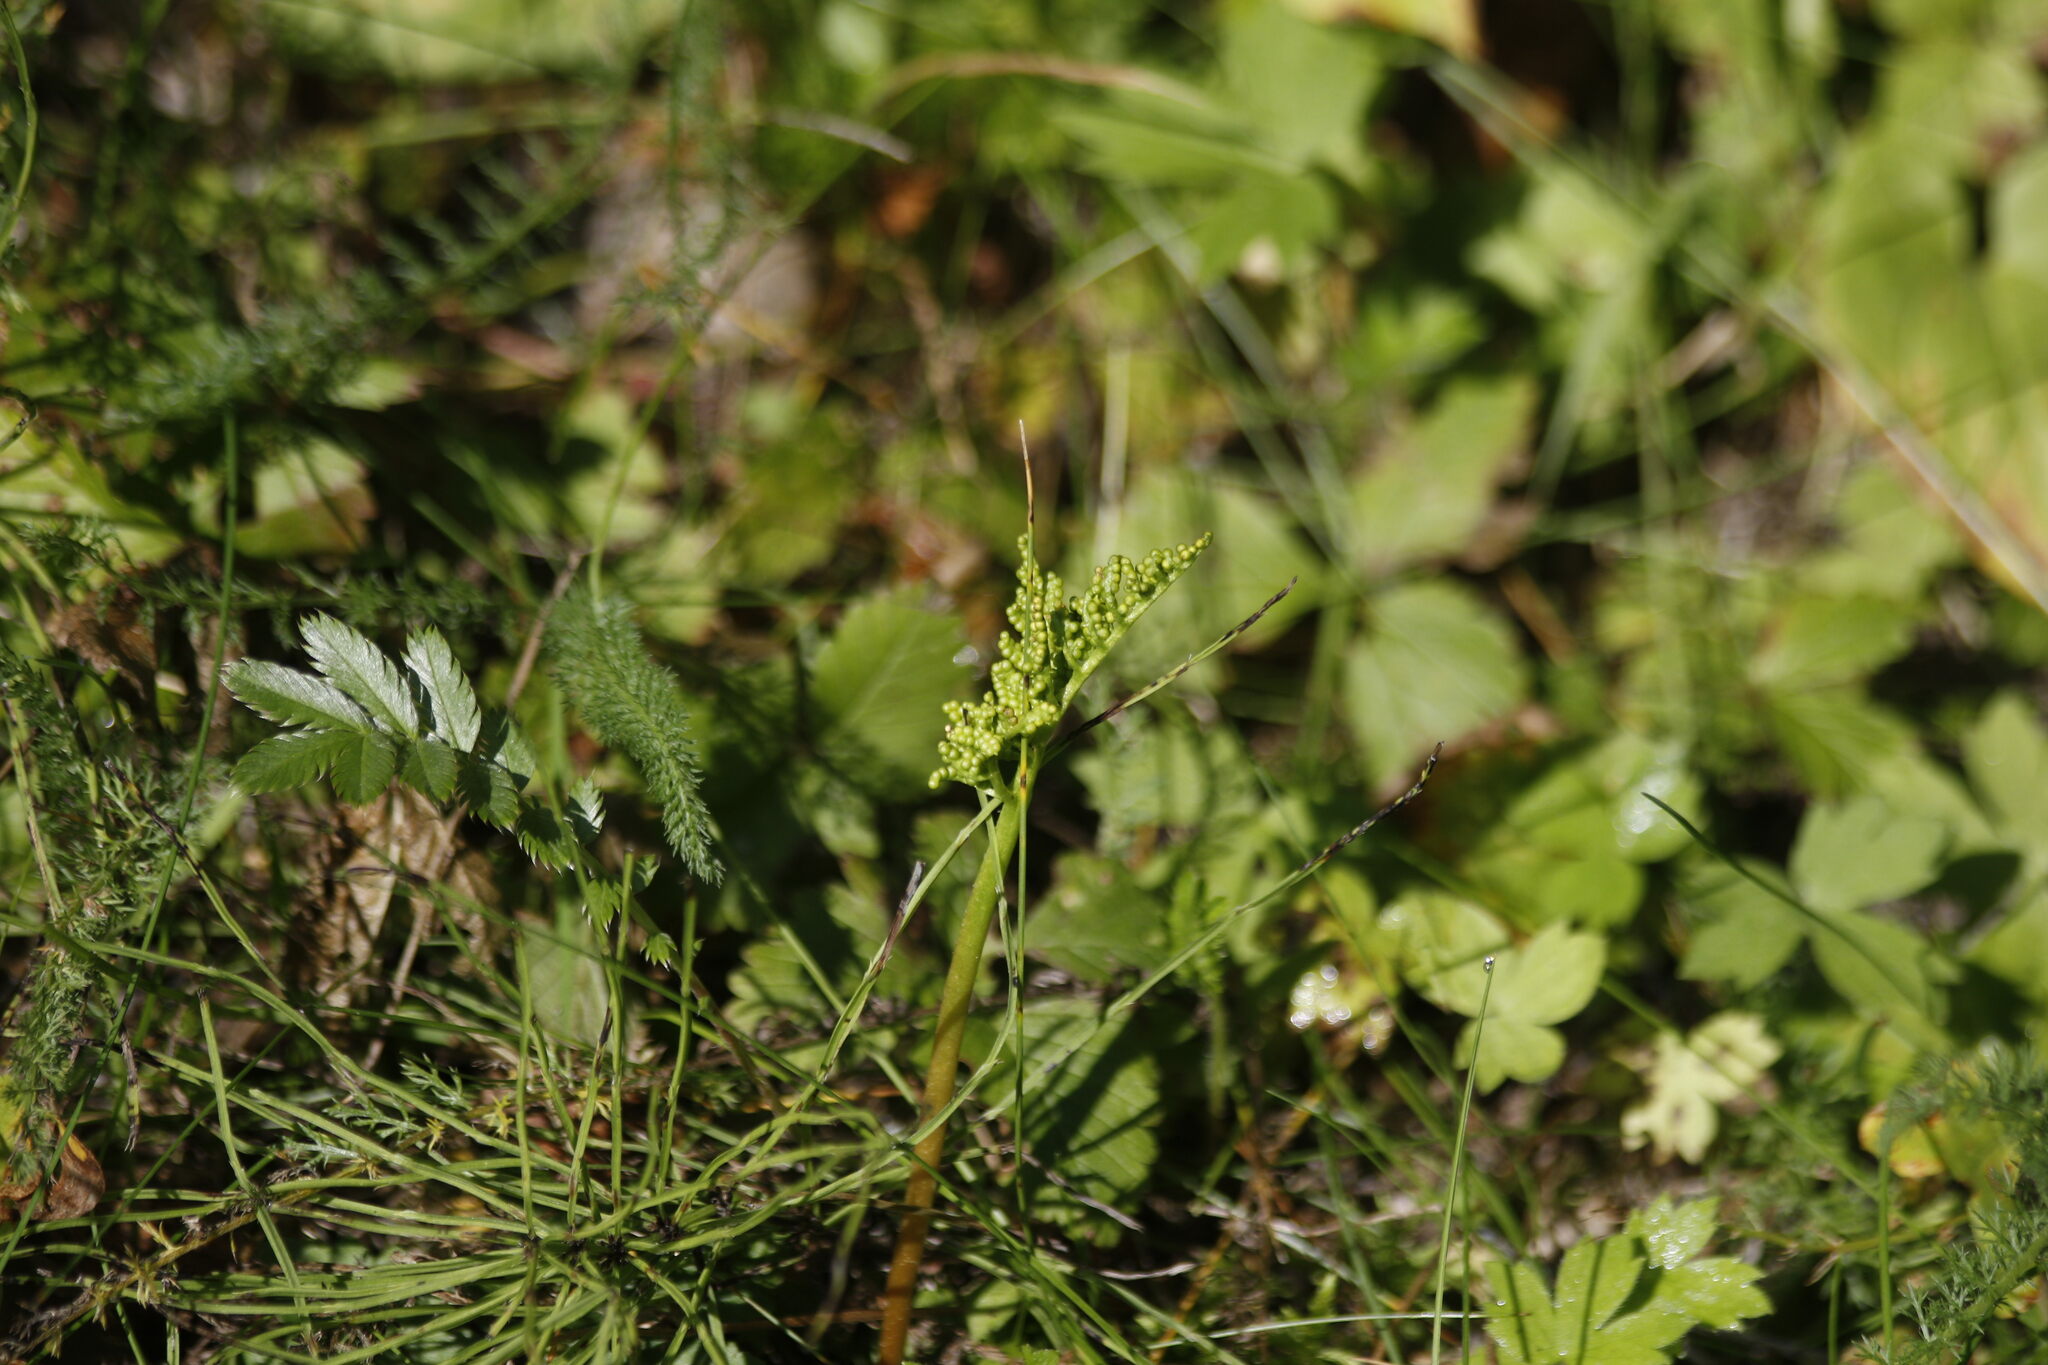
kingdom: Plantae
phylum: Tracheophyta
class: Polypodiopsida
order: Ophioglossales
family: Ophioglossaceae
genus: Sceptridium
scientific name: Sceptridium multifidum
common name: Leathery grape fern
